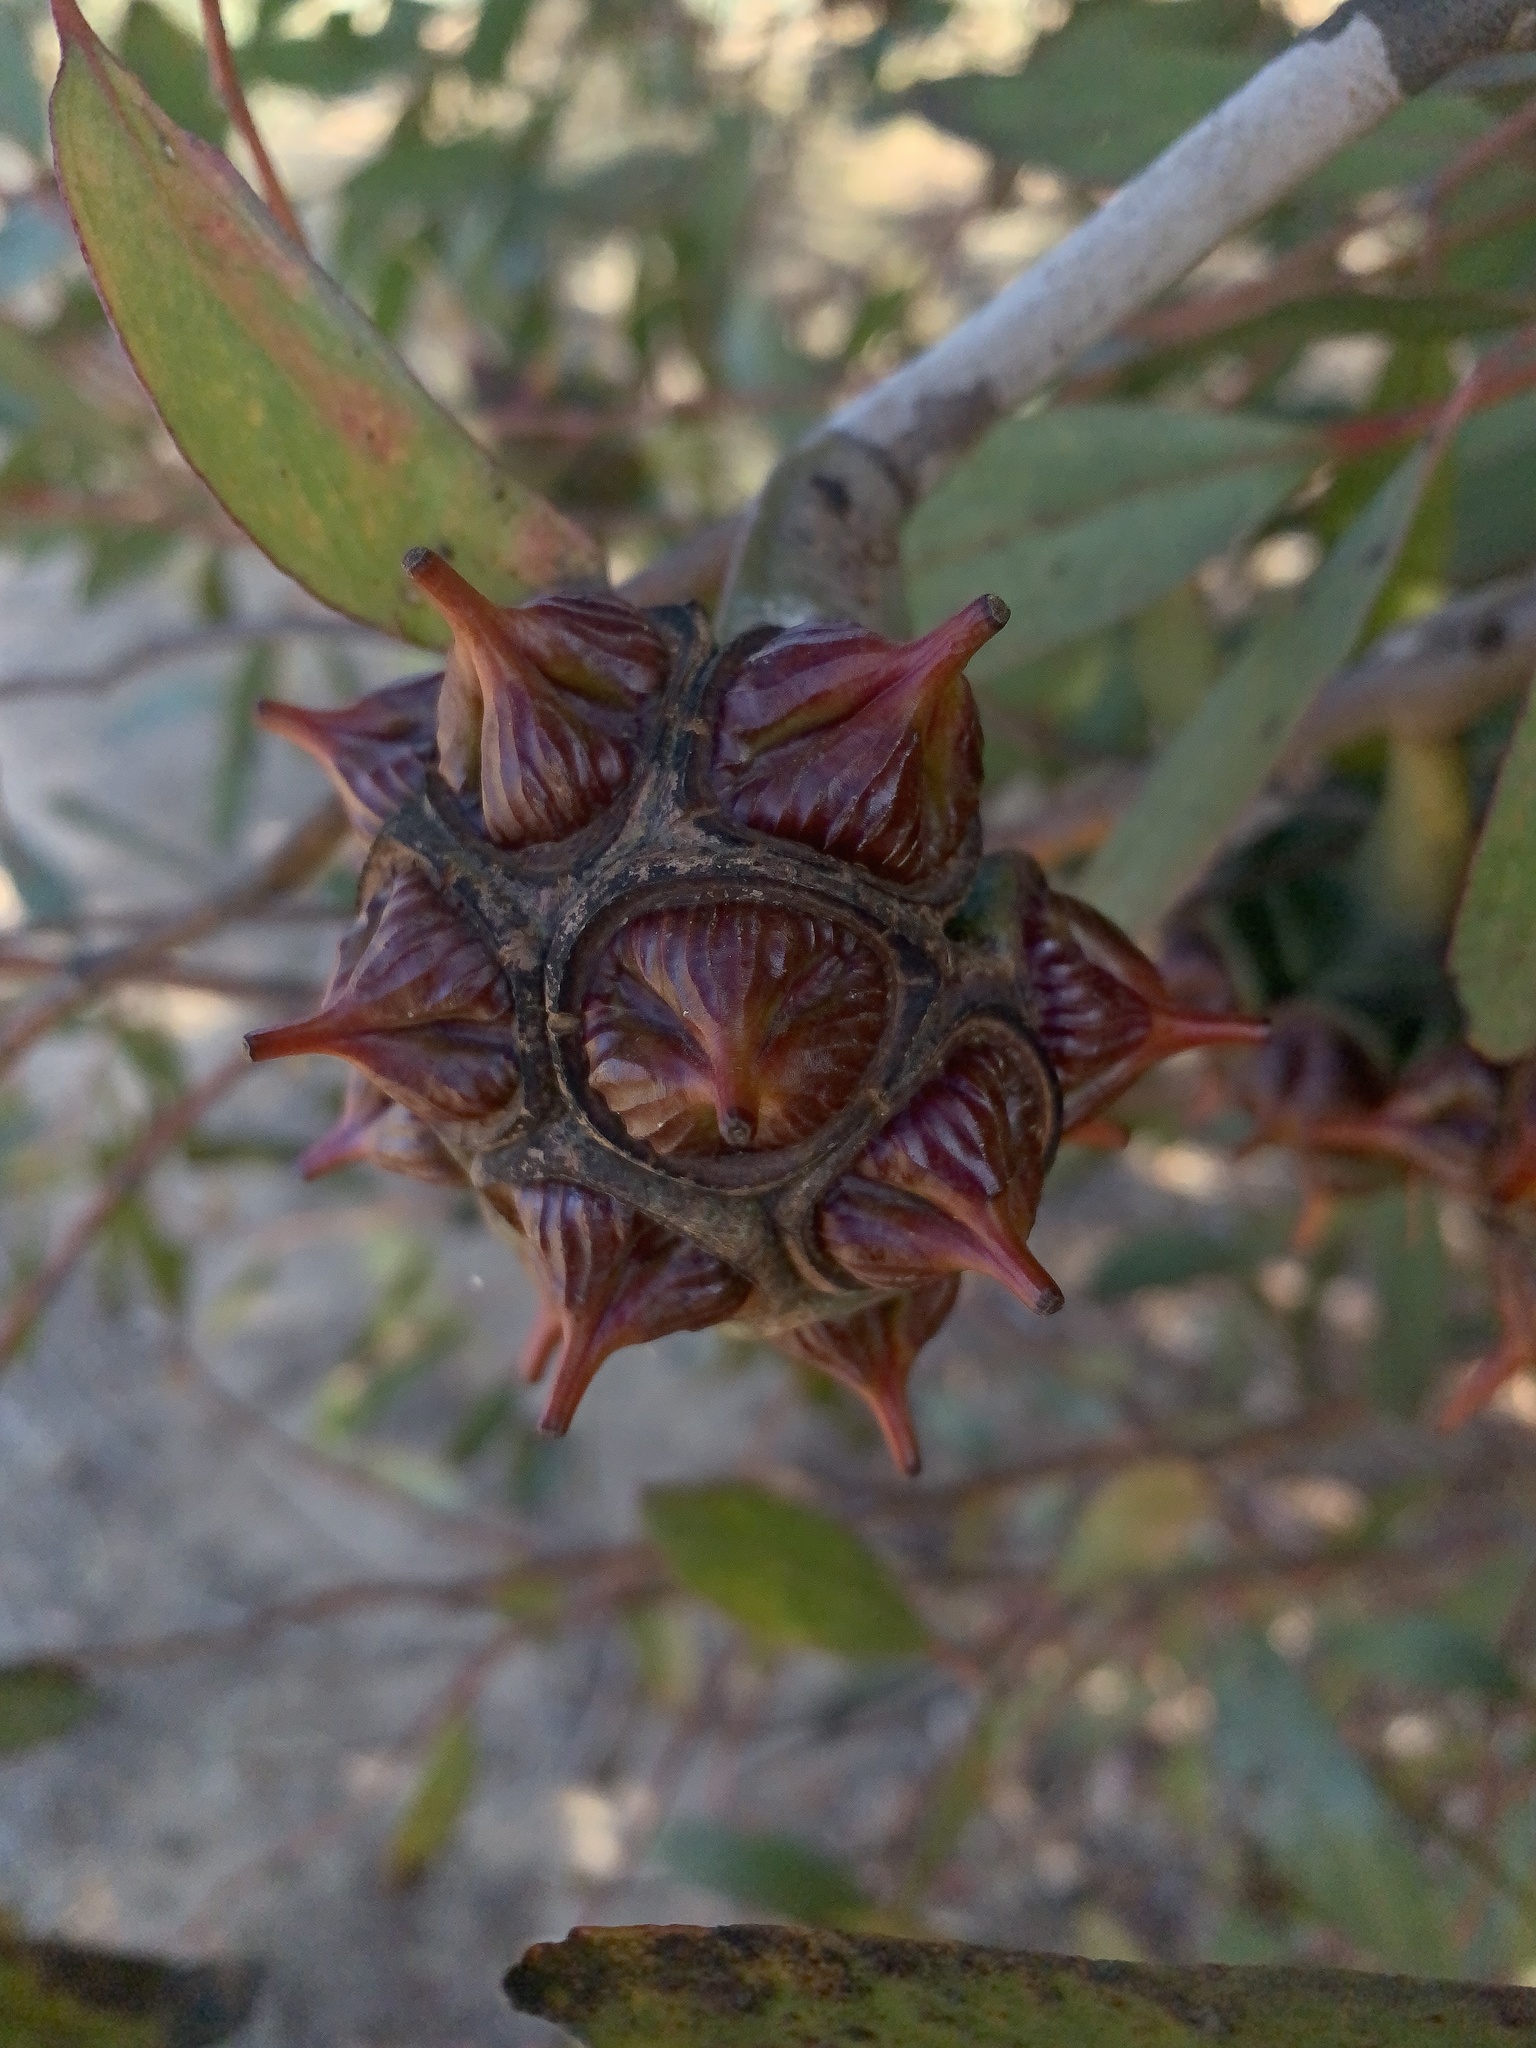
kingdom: Plantae
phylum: Tracheophyta
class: Magnoliopsida
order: Myrtales
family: Myrtaceae
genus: Eucalyptus
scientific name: Eucalyptus conferruminata
